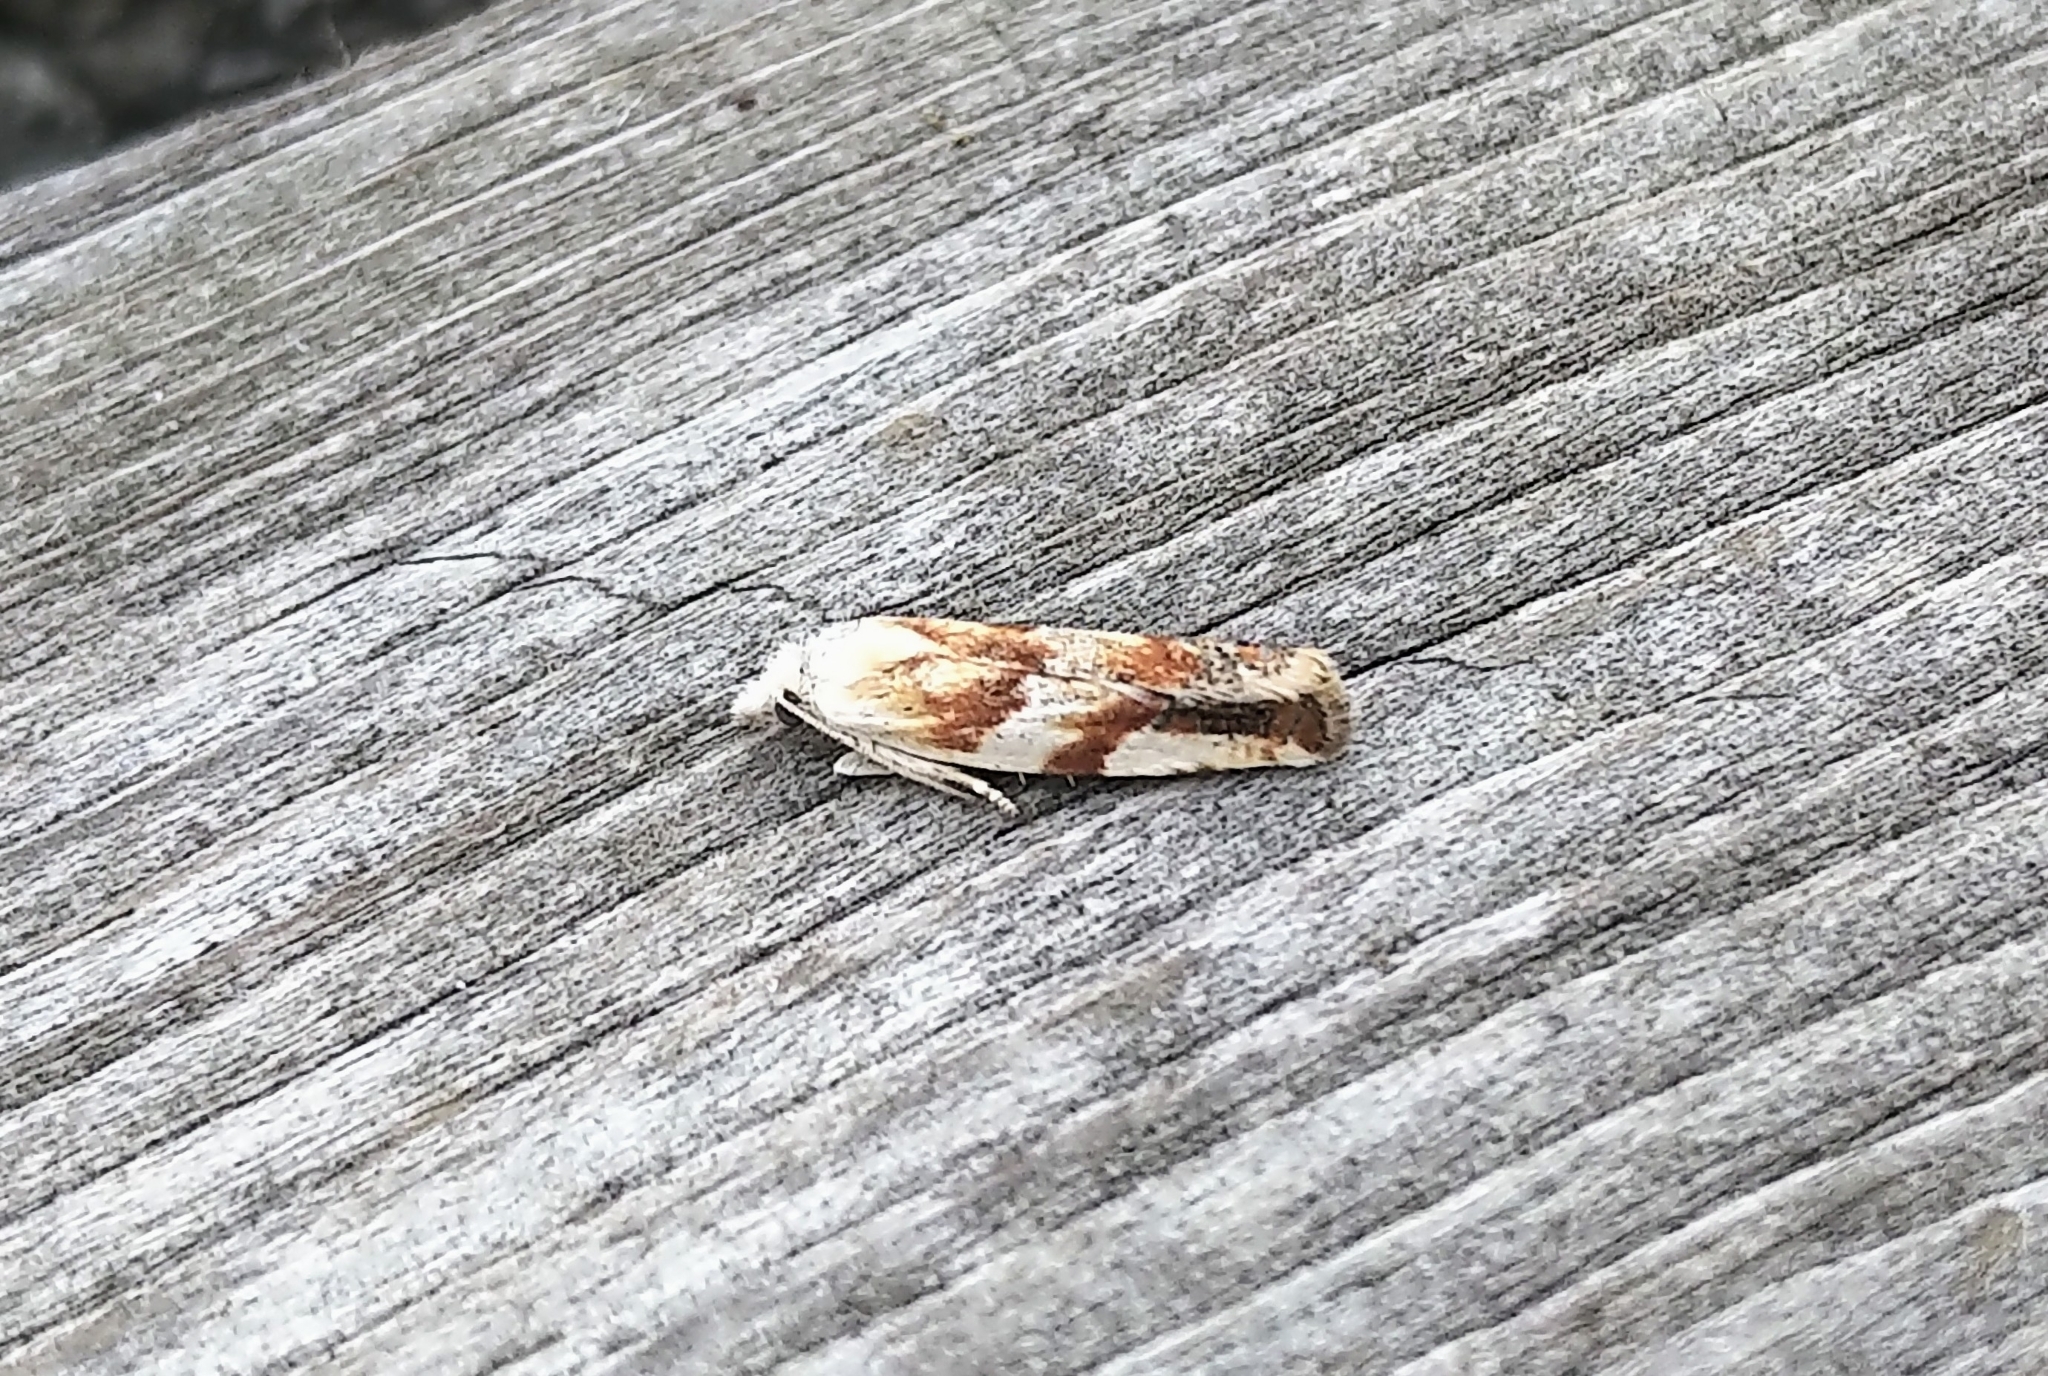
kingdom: Animalia
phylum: Arthropoda
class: Insecta
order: Lepidoptera
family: Tortricidae
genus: Eucosma
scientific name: Eucosma octopunctana
